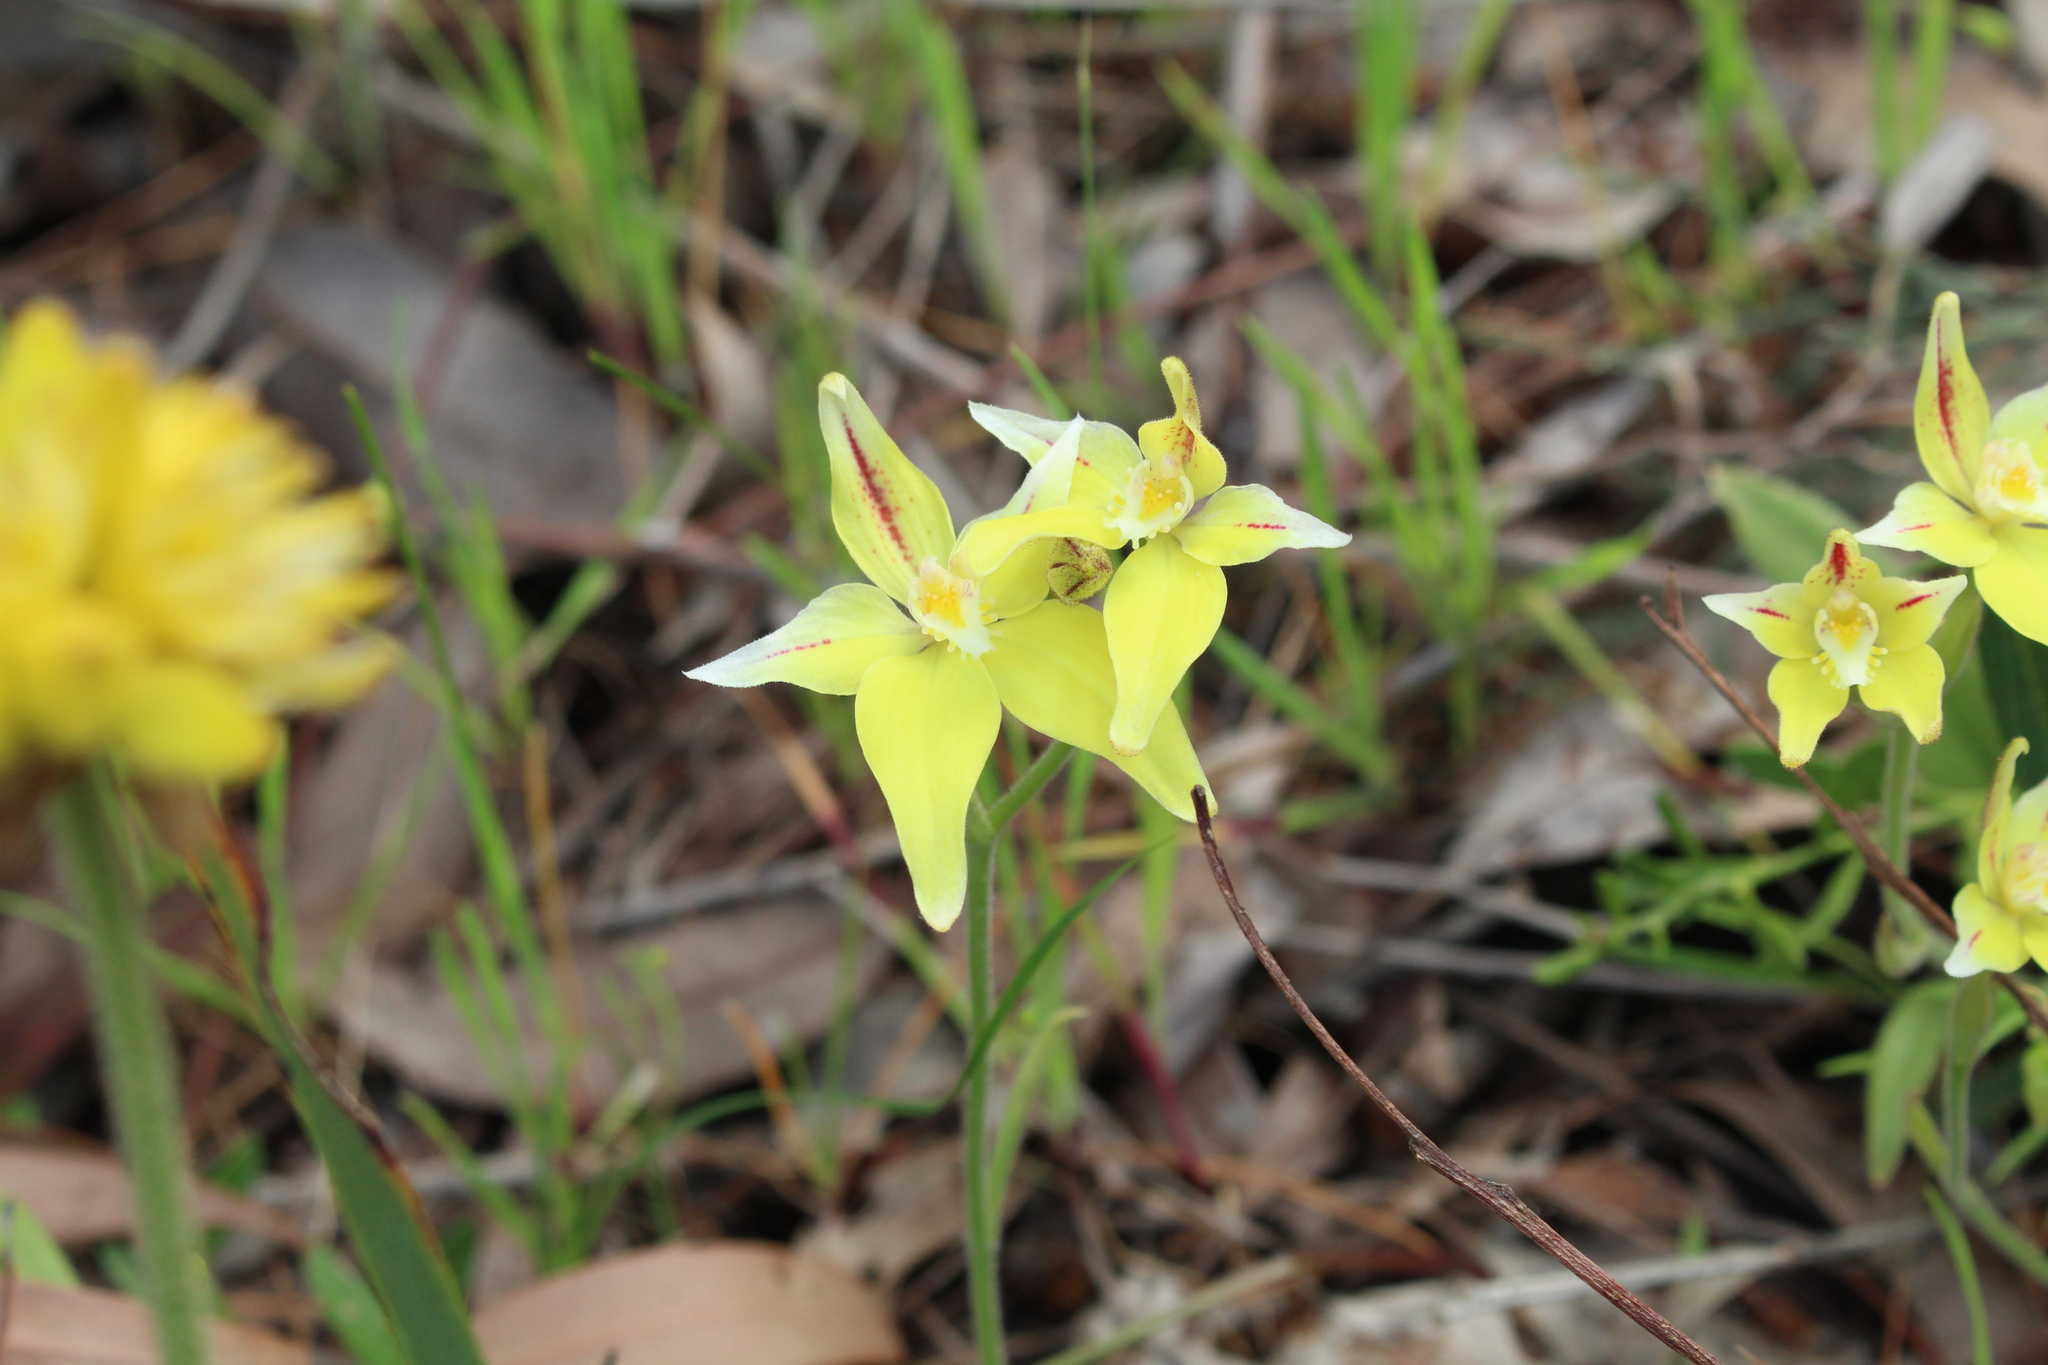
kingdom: Plantae
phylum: Tracheophyta
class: Liliopsida
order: Asparagales
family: Orchidaceae
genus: Caladenia
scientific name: Caladenia flava
